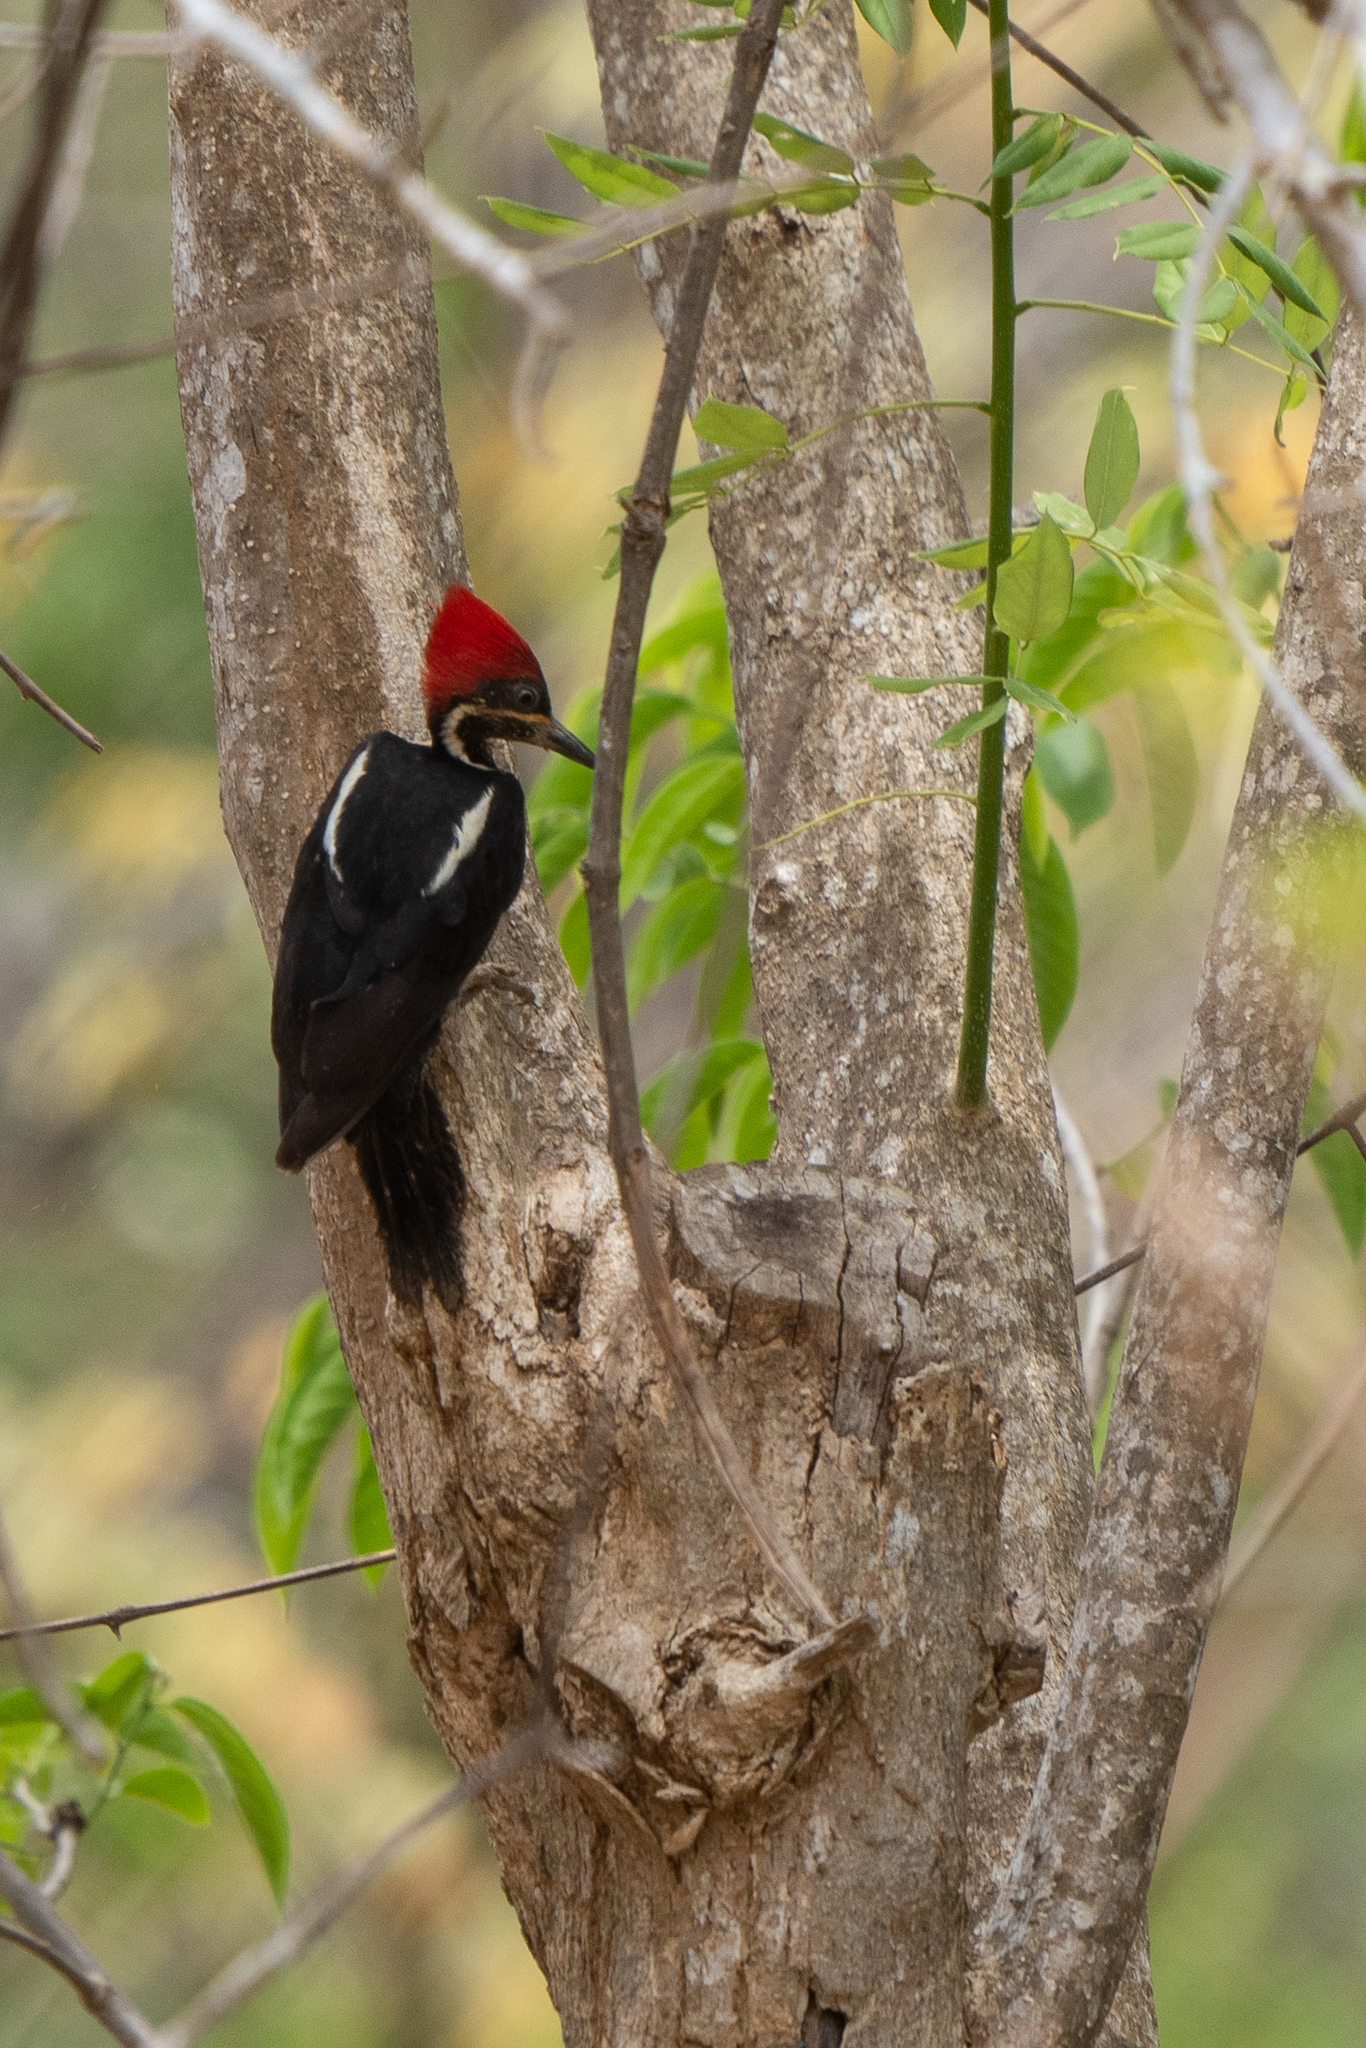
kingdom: Animalia
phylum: Chordata
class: Aves
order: Piciformes
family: Picidae
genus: Dryocopus
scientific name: Dryocopus lineatus
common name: Lineated woodpecker
